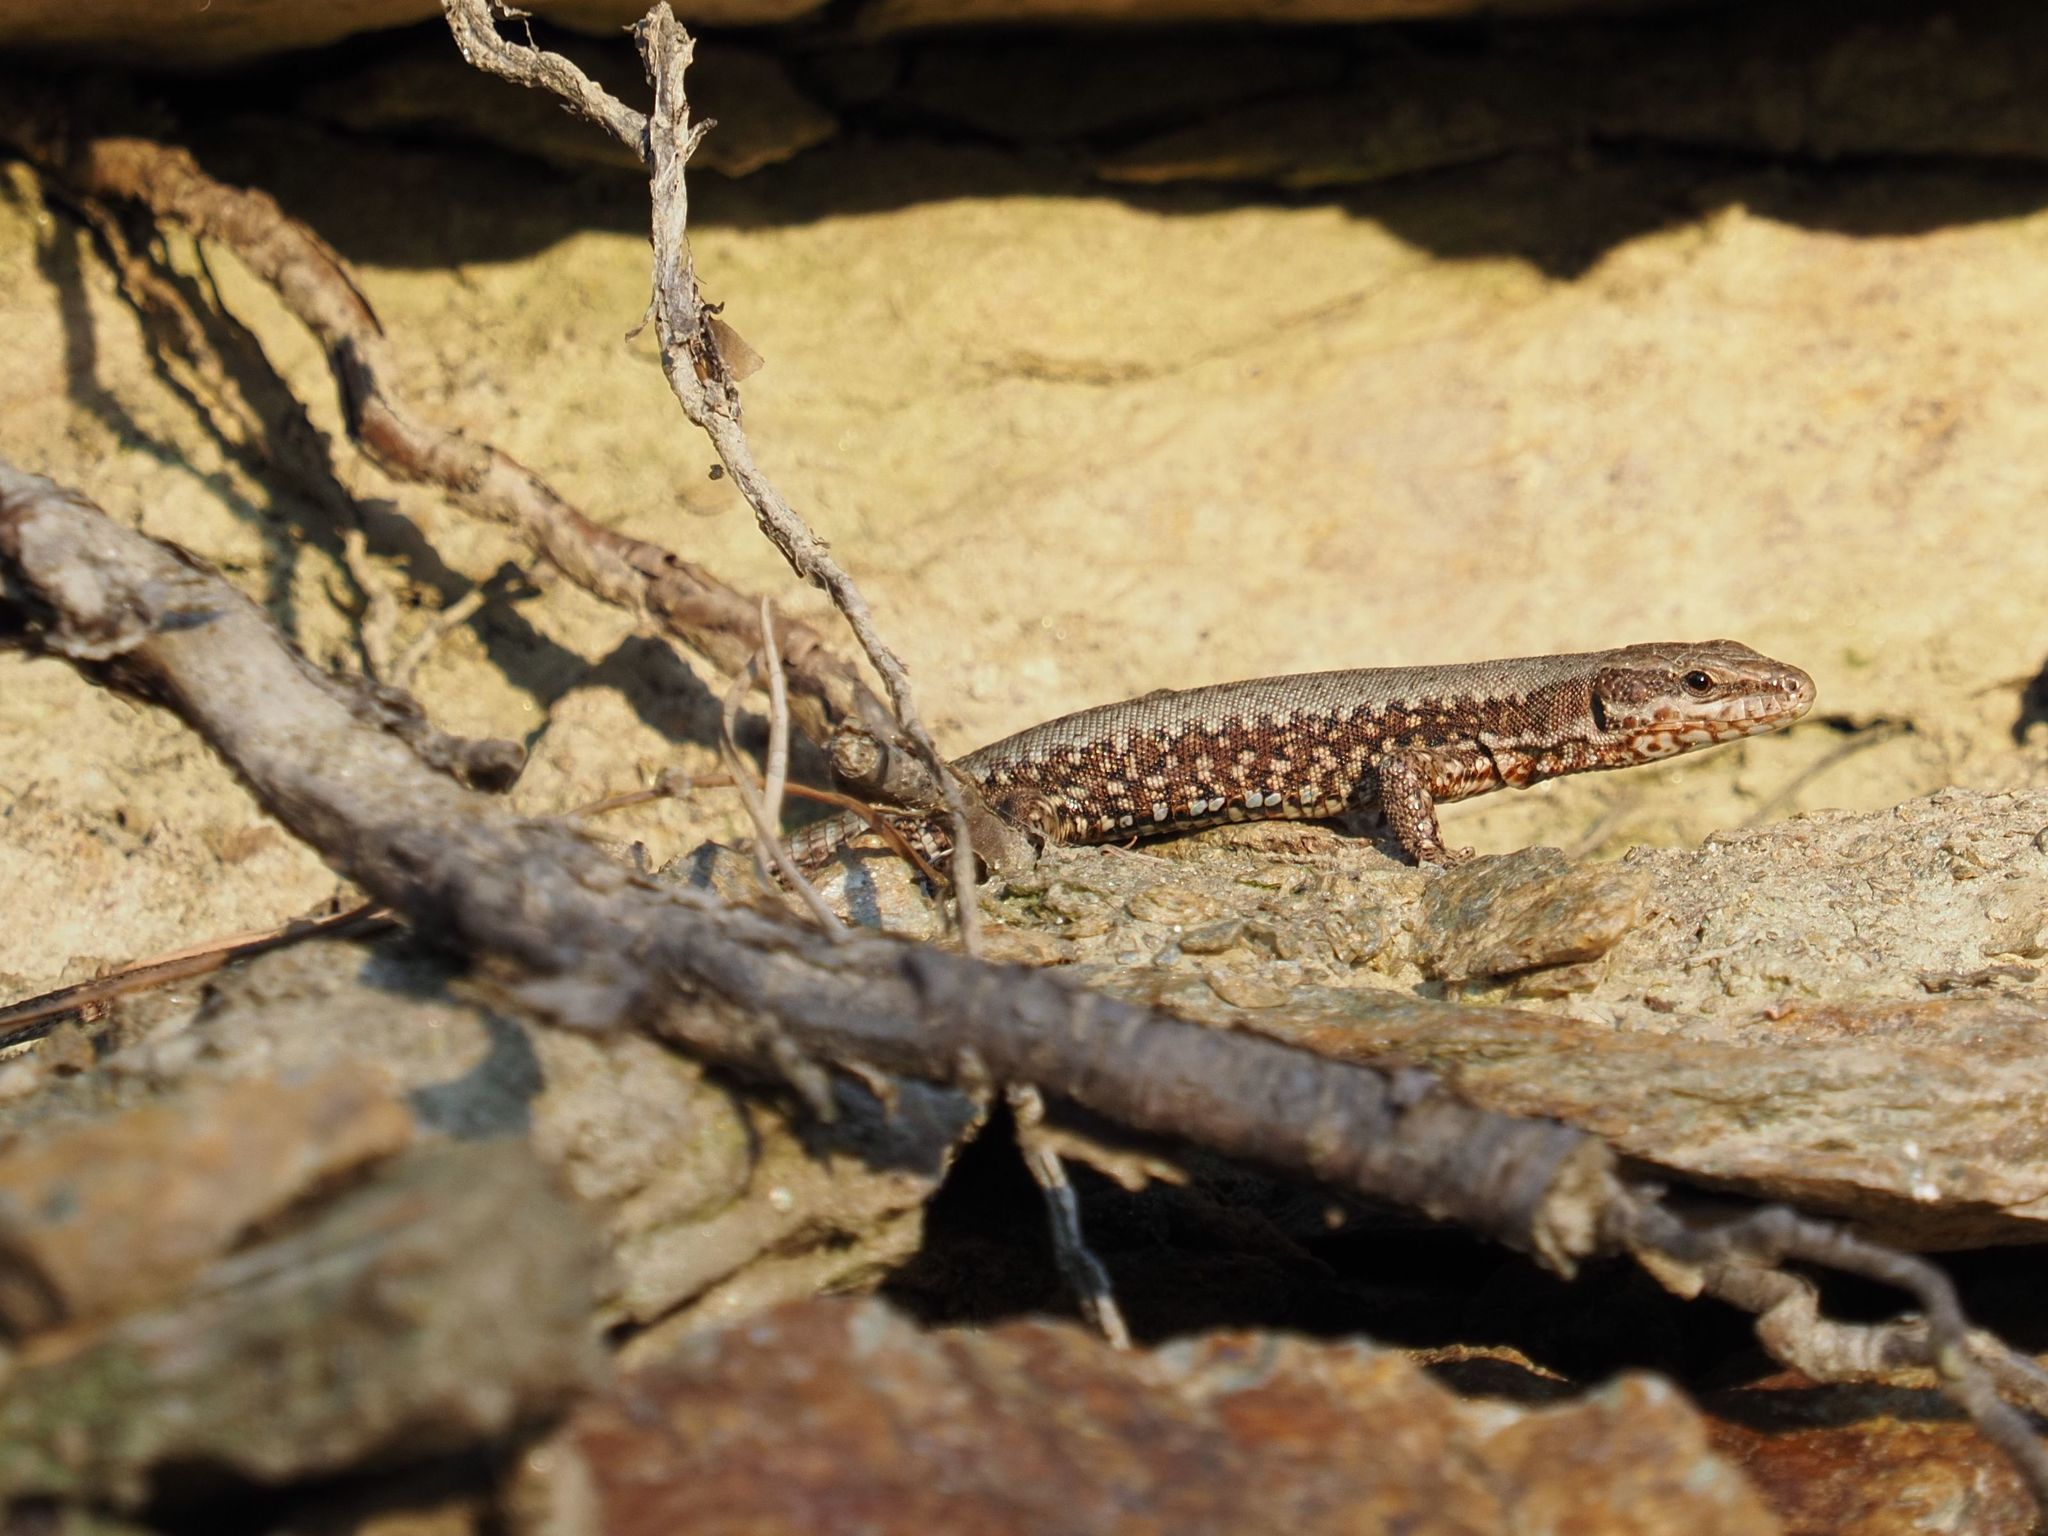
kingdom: Animalia
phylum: Chordata
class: Squamata
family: Lacertidae
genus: Podarcis
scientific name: Podarcis muralis
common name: Common wall lizard
